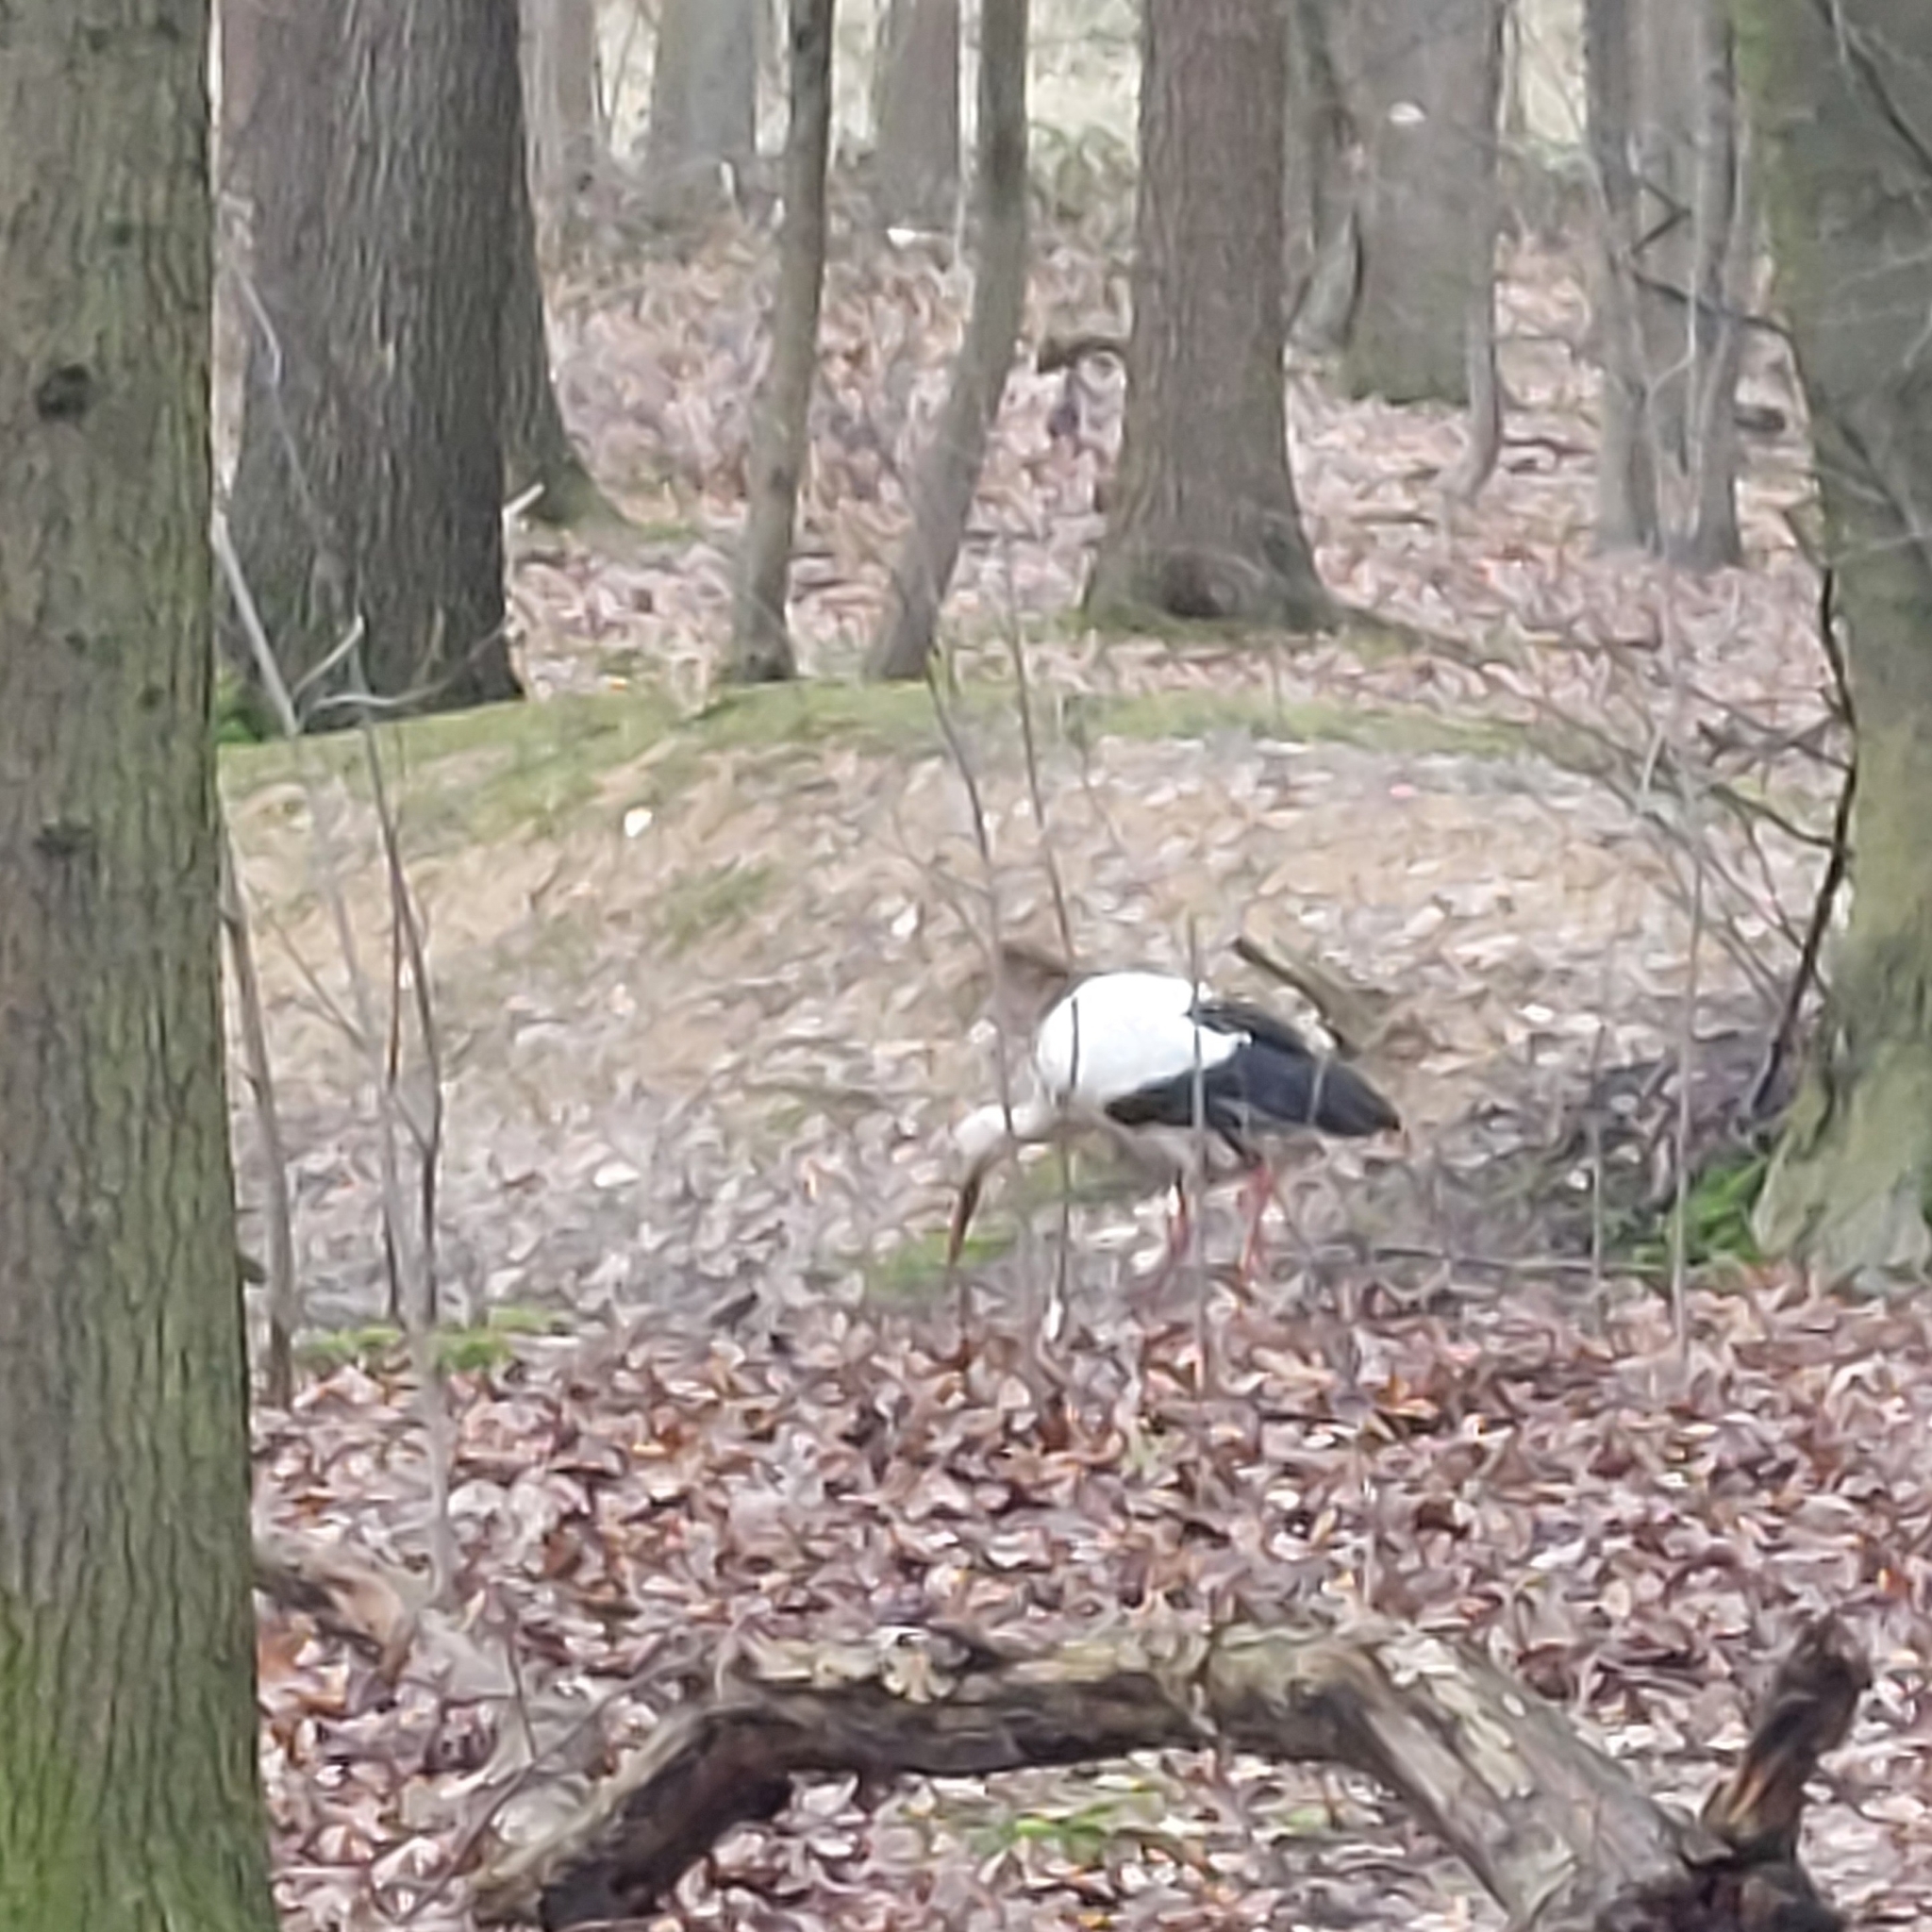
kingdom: Animalia
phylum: Chordata
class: Aves
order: Ciconiiformes
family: Ciconiidae
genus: Ciconia
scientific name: Ciconia ciconia
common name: White stork
